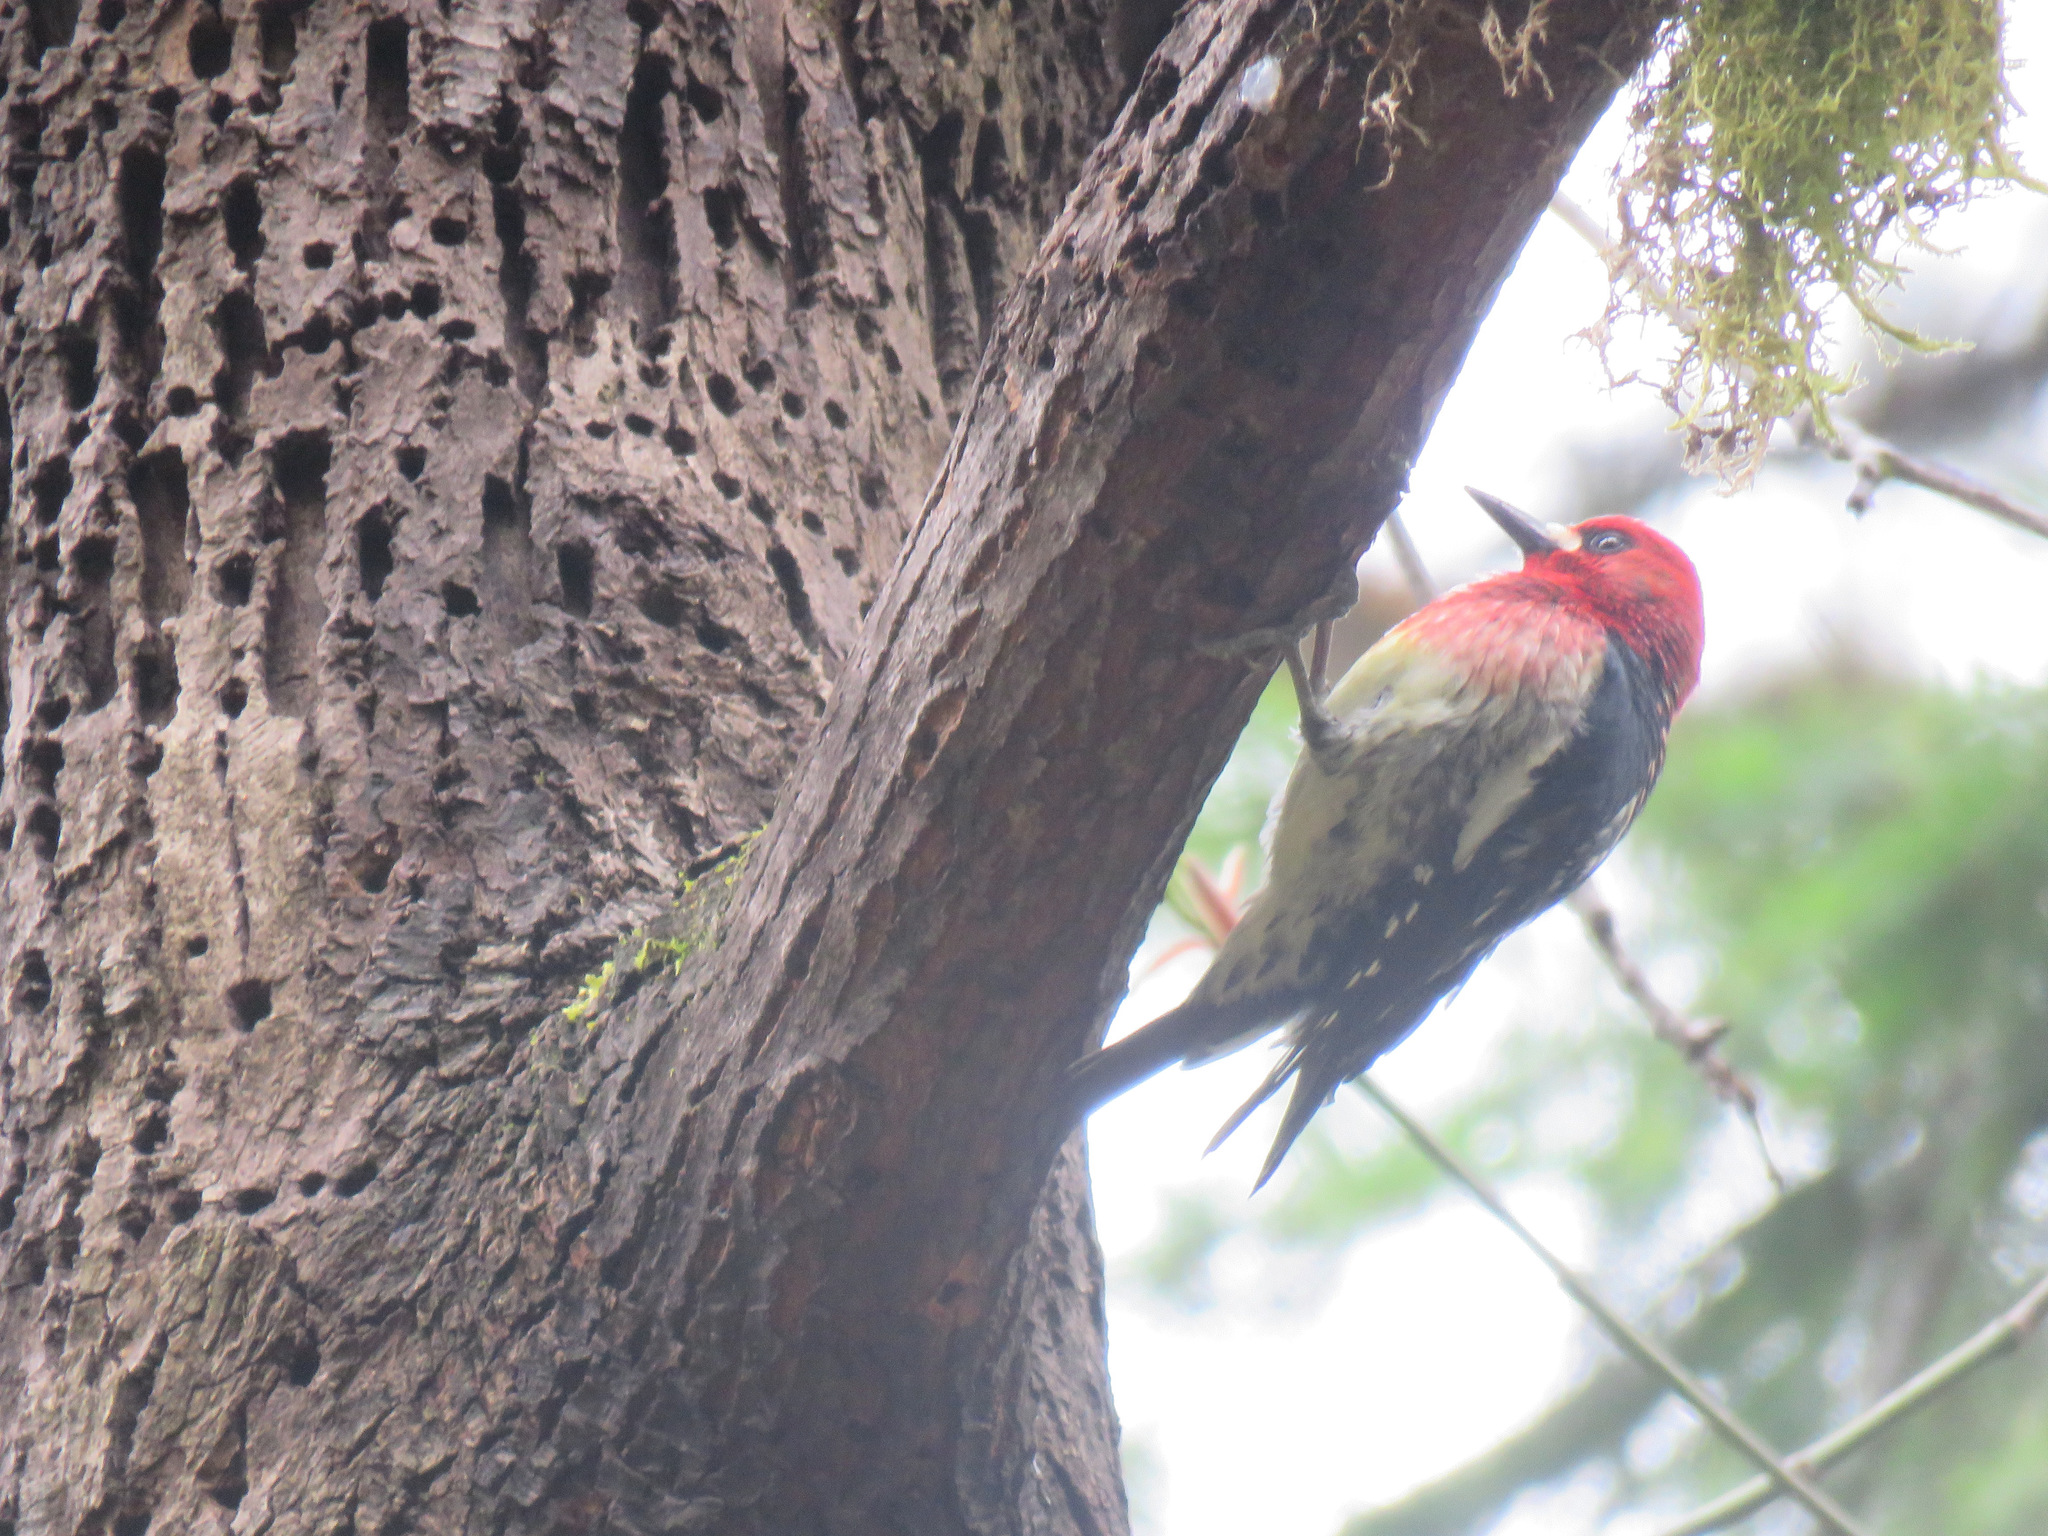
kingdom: Animalia
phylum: Chordata
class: Aves
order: Piciformes
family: Picidae
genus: Sphyrapicus
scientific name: Sphyrapicus ruber
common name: Red-breasted sapsucker
